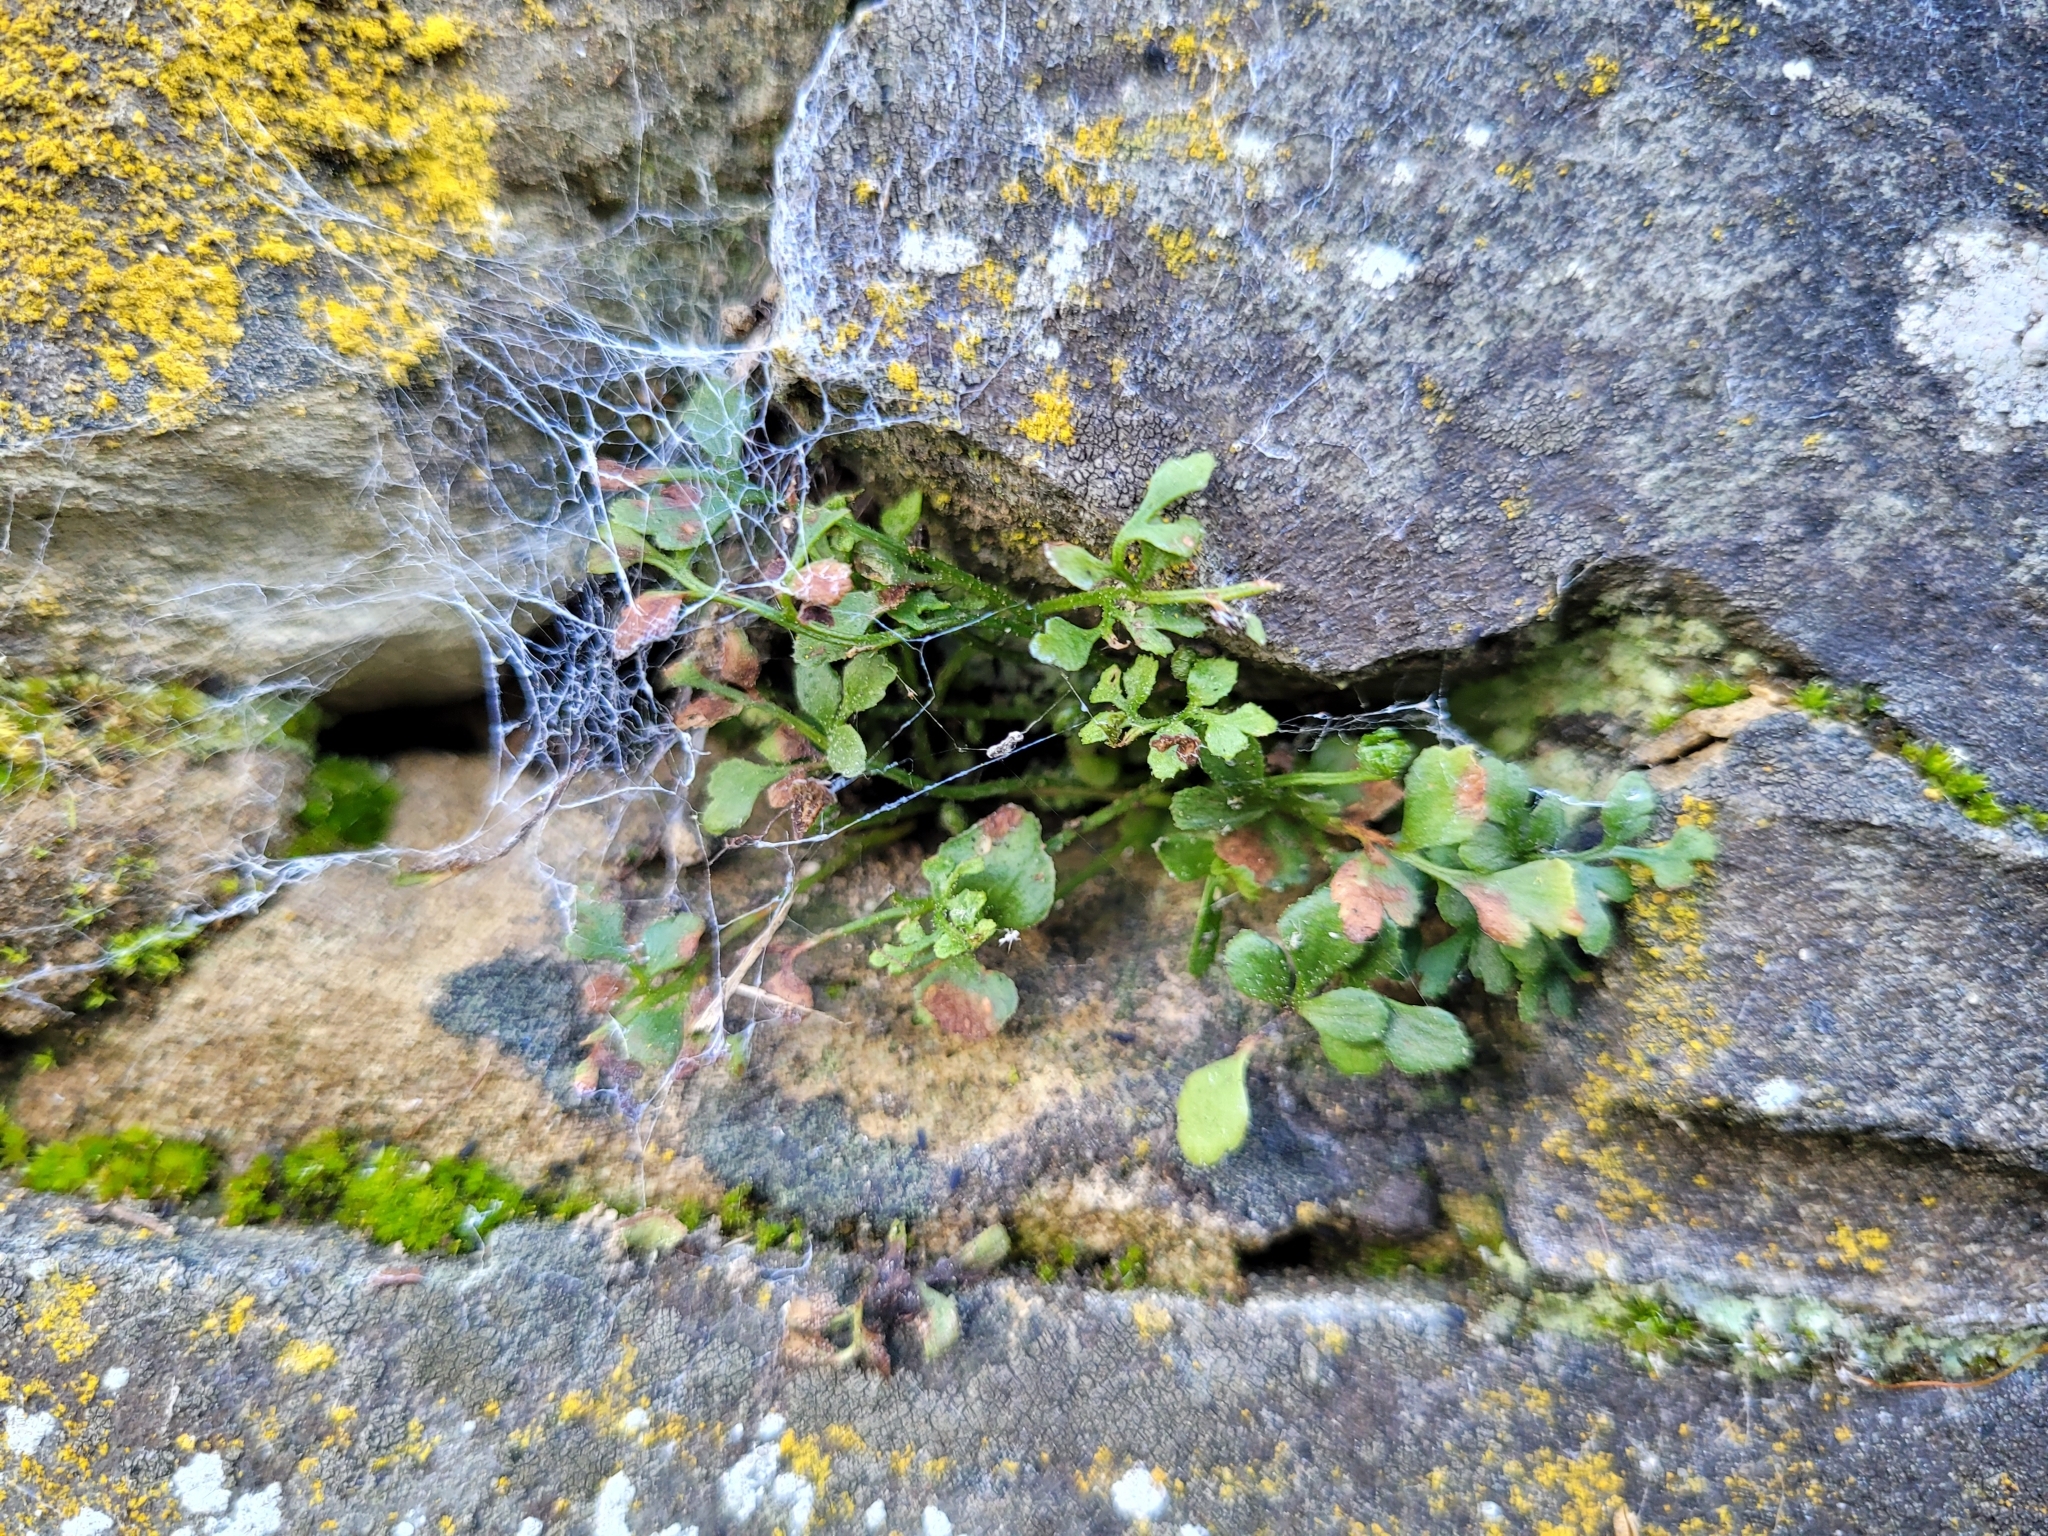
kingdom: Plantae
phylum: Tracheophyta
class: Polypodiopsida
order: Polypodiales
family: Aspleniaceae
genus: Asplenium
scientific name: Asplenium ruta-muraria
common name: Wall-rue
